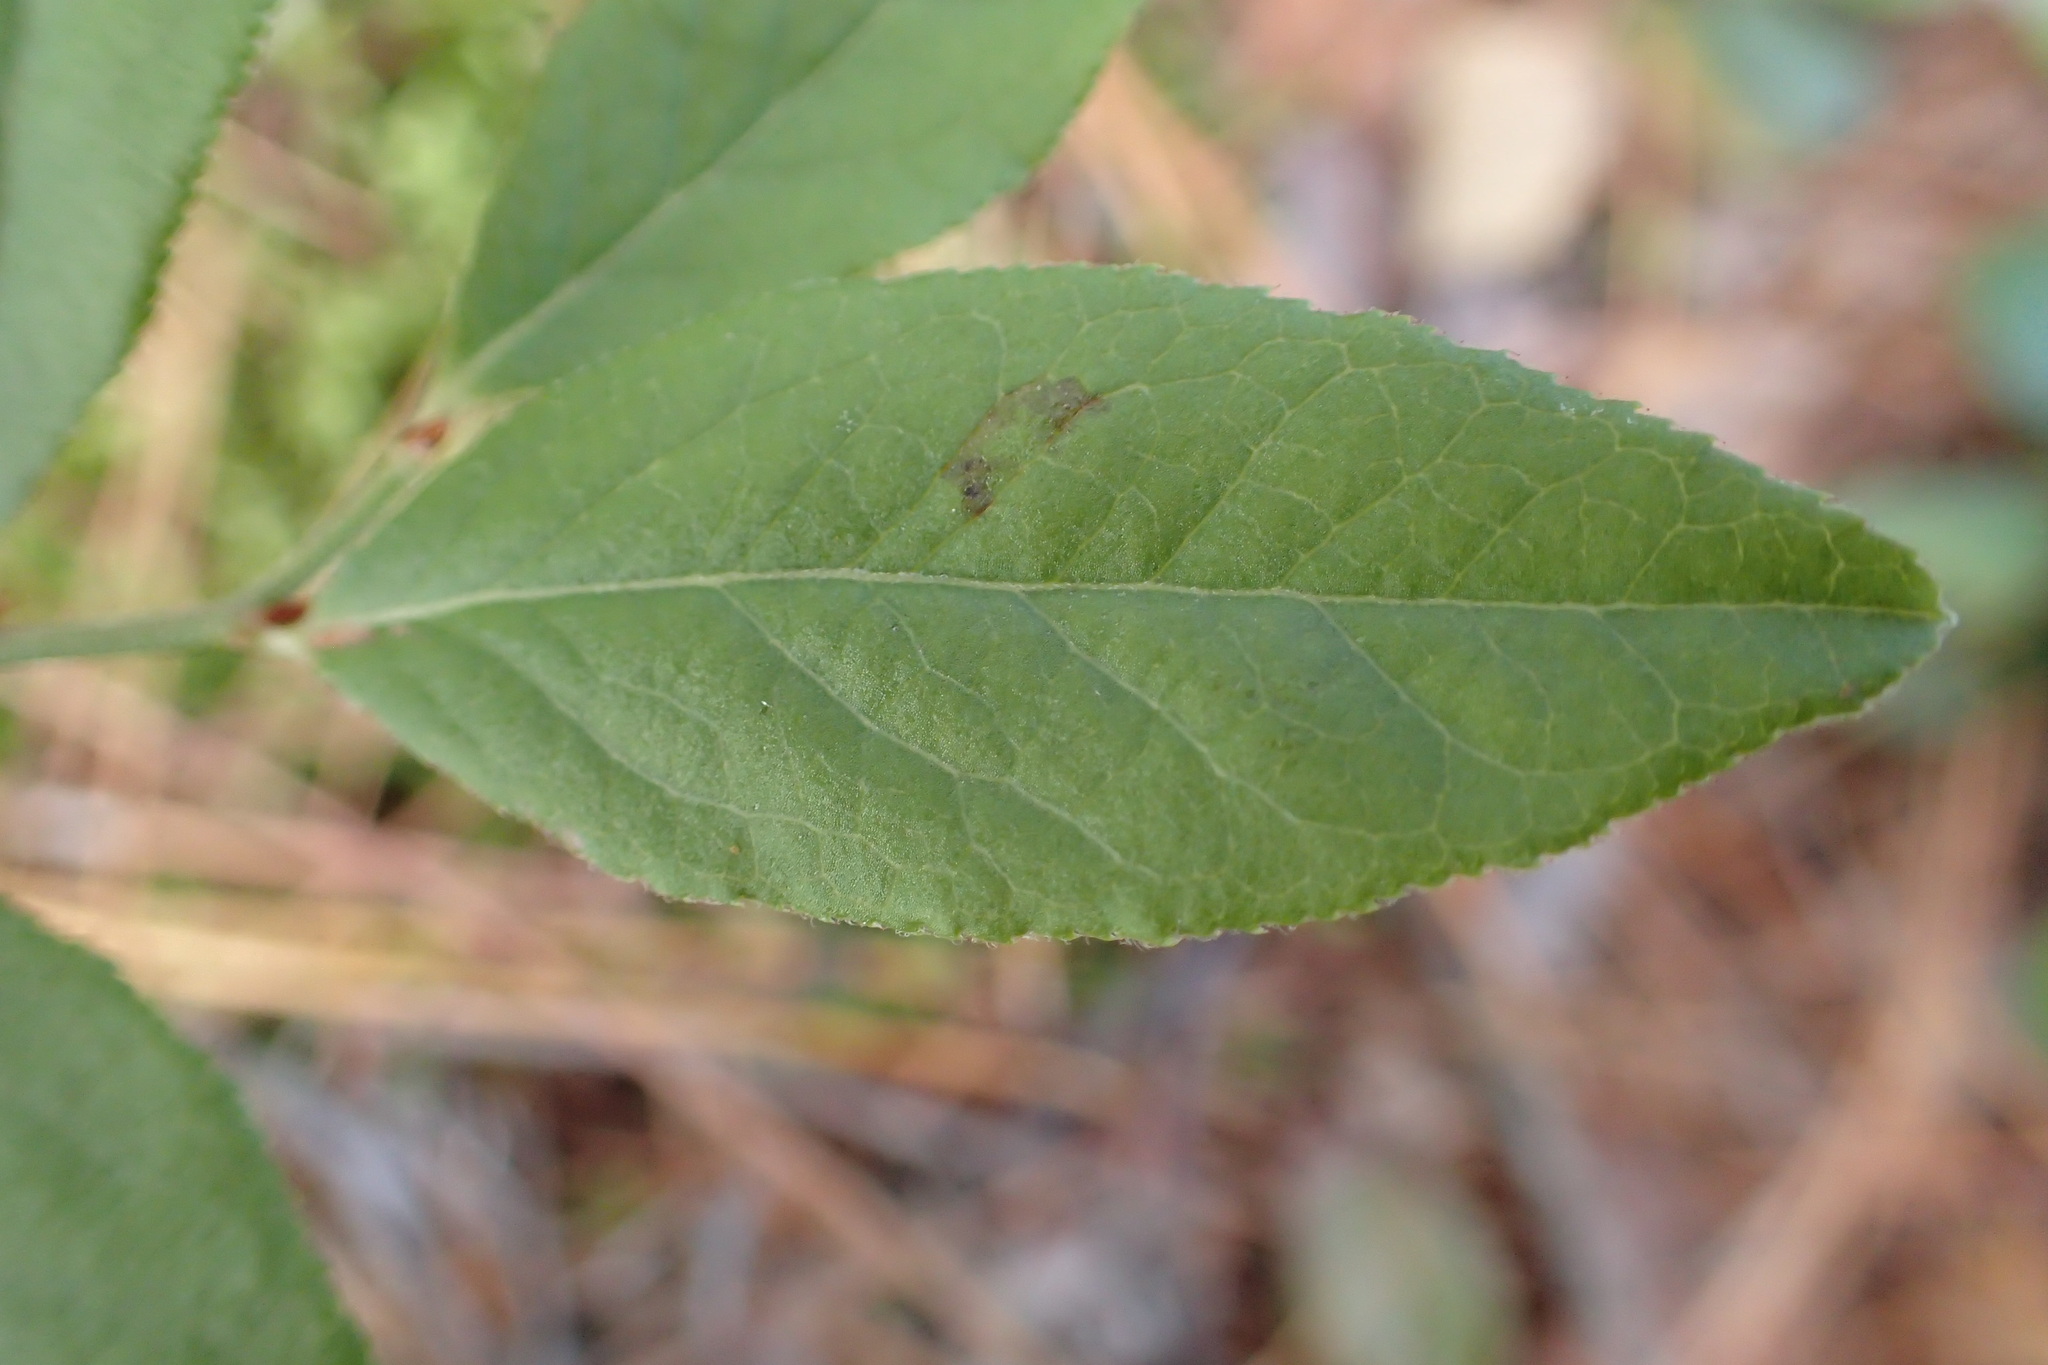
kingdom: Plantae
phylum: Tracheophyta
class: Magnoliopsida
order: Ericales
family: Ericaceae
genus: Vaccinium
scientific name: Vaccinium angustifolium
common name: Early lowbush blueberry
